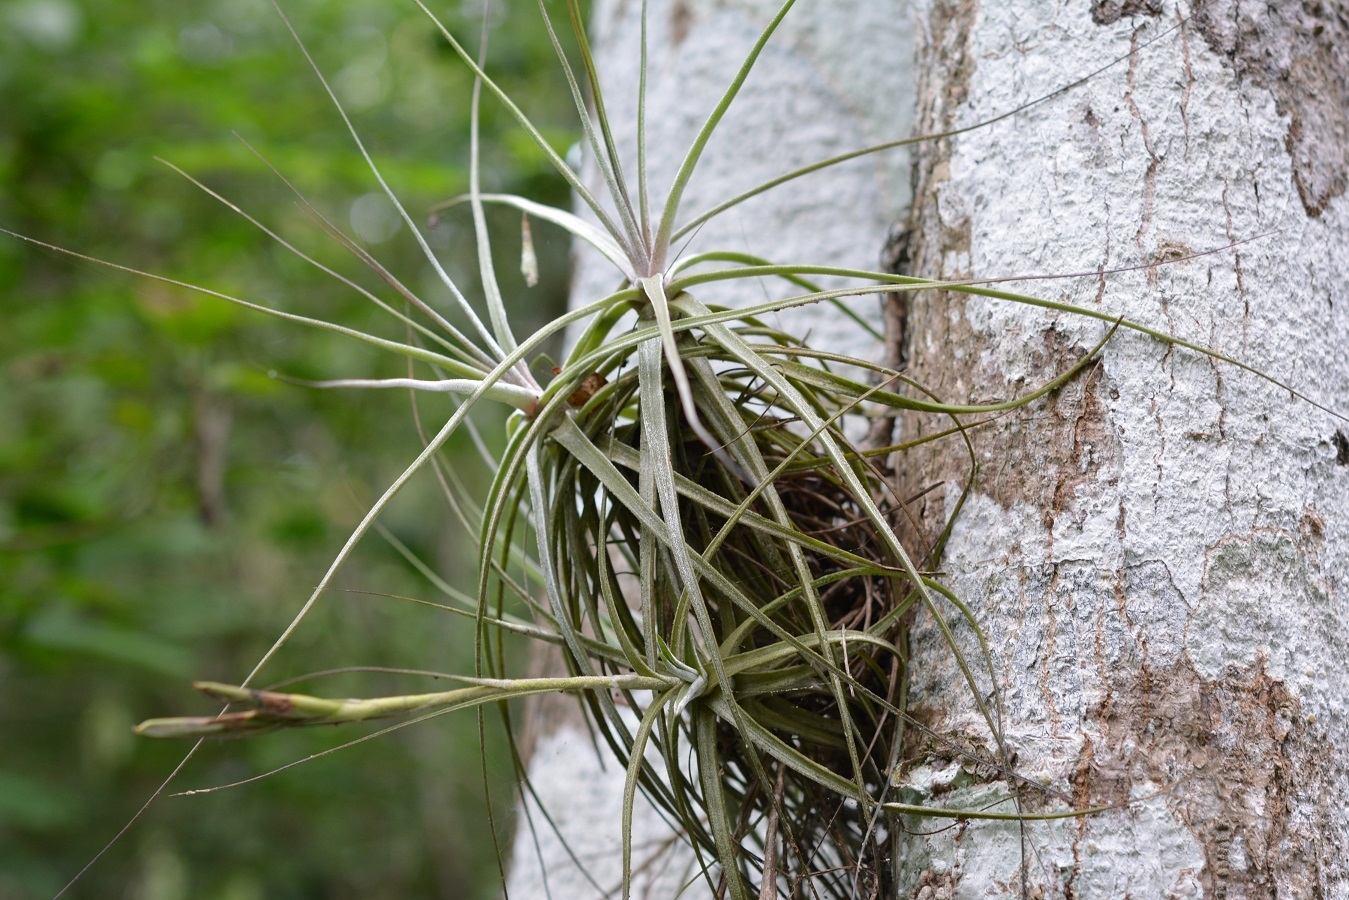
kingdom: Plantae
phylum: Tracheophyta
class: Liliopsida
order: Poales
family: Bromeliaceae
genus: Tillandsia
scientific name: Tillandsia schiedeana
